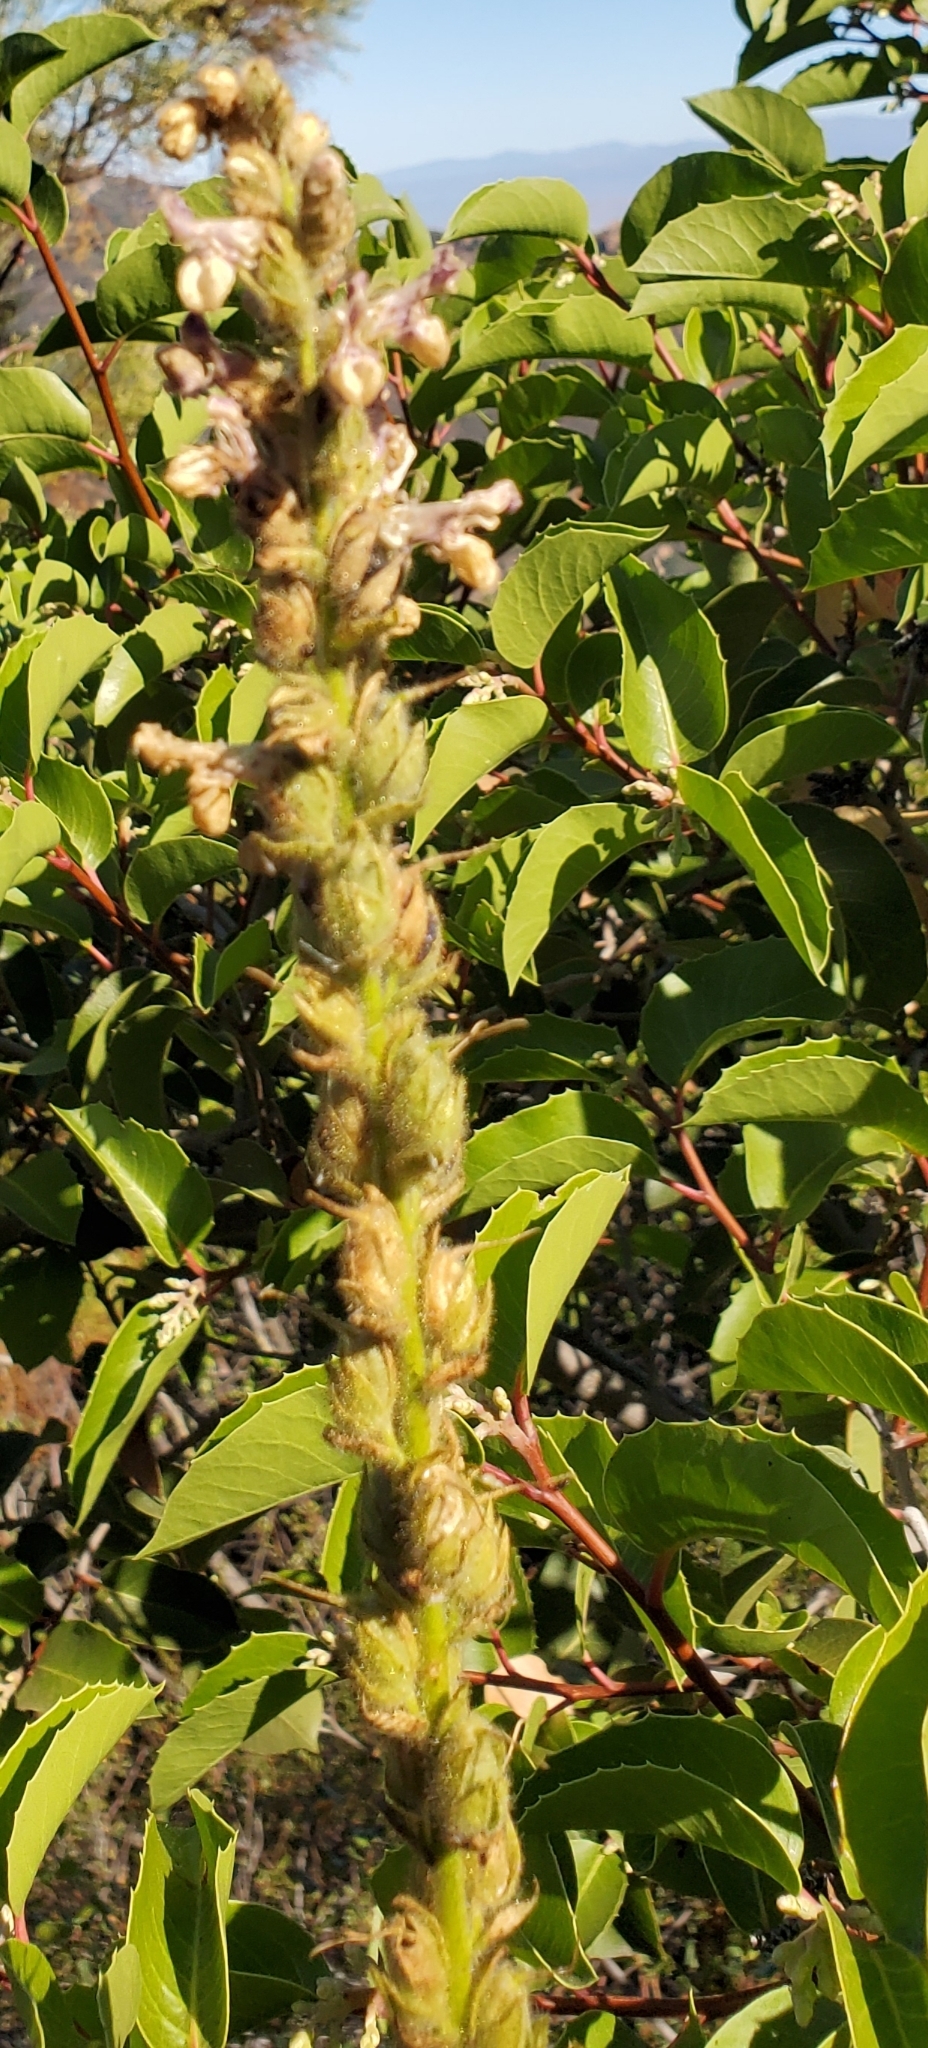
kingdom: Plantae
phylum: Tracheophyta
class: Magnoliopsida
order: Lamiales
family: Plantaginaceae
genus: Sairocarpus
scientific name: Sairocarpus multiflorus
